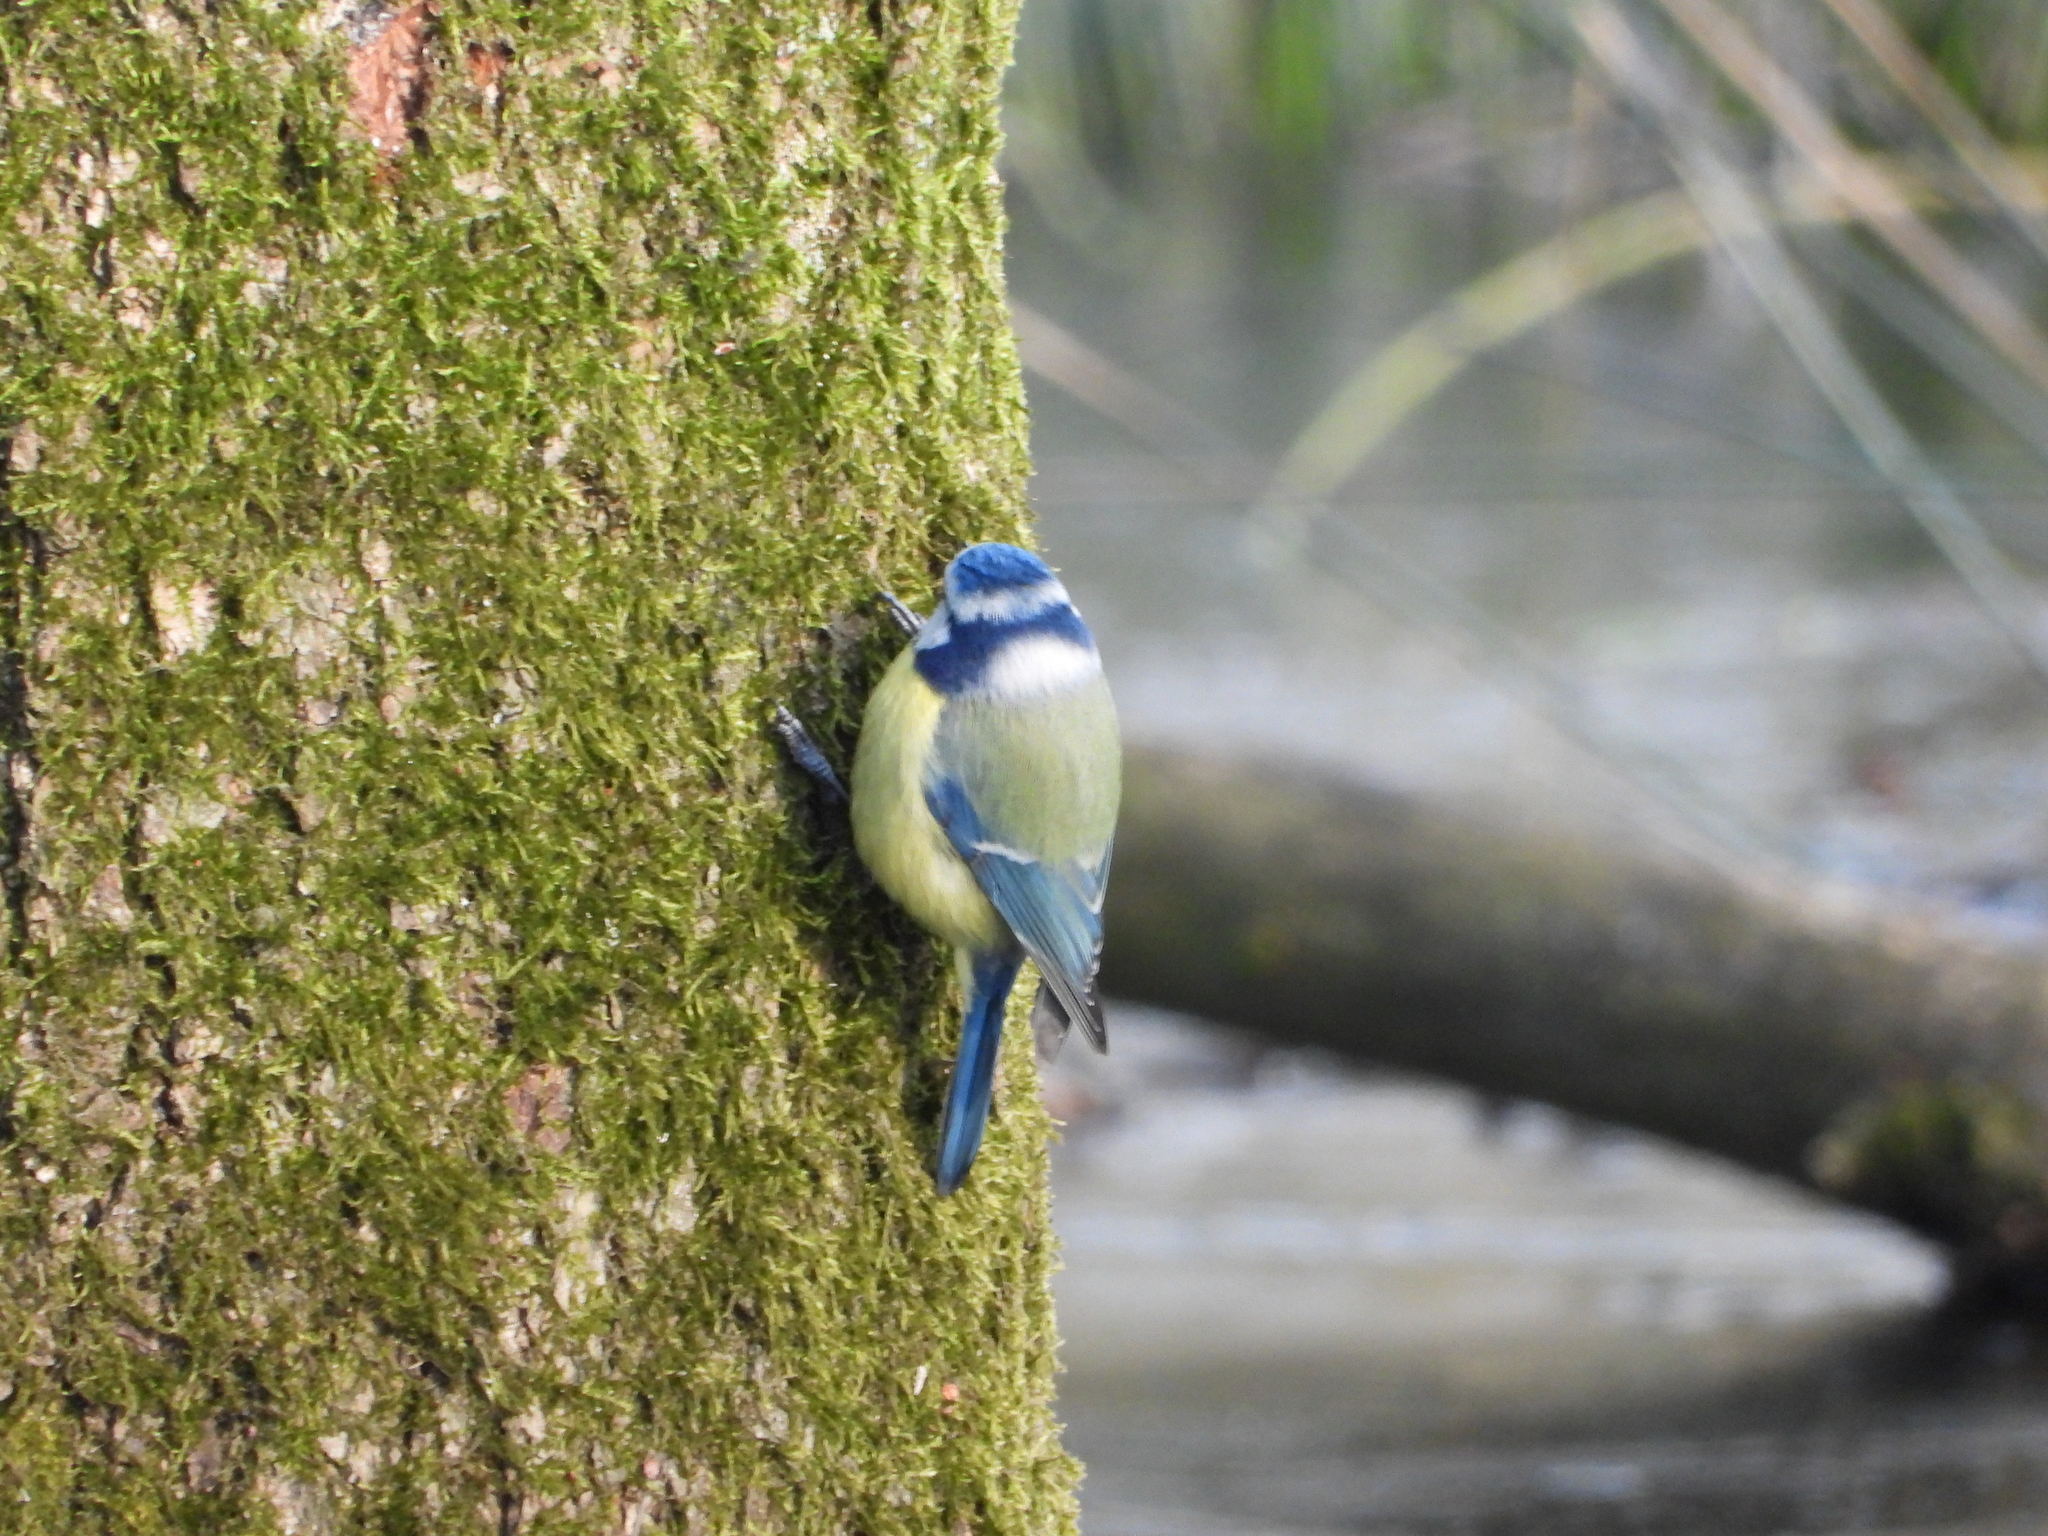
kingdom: Animalia
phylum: Chordata
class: Aves
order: Passeriformes
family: Paridae
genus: Cyanistes
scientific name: Cyanistes caeruleus
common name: Eurasian blue tit
